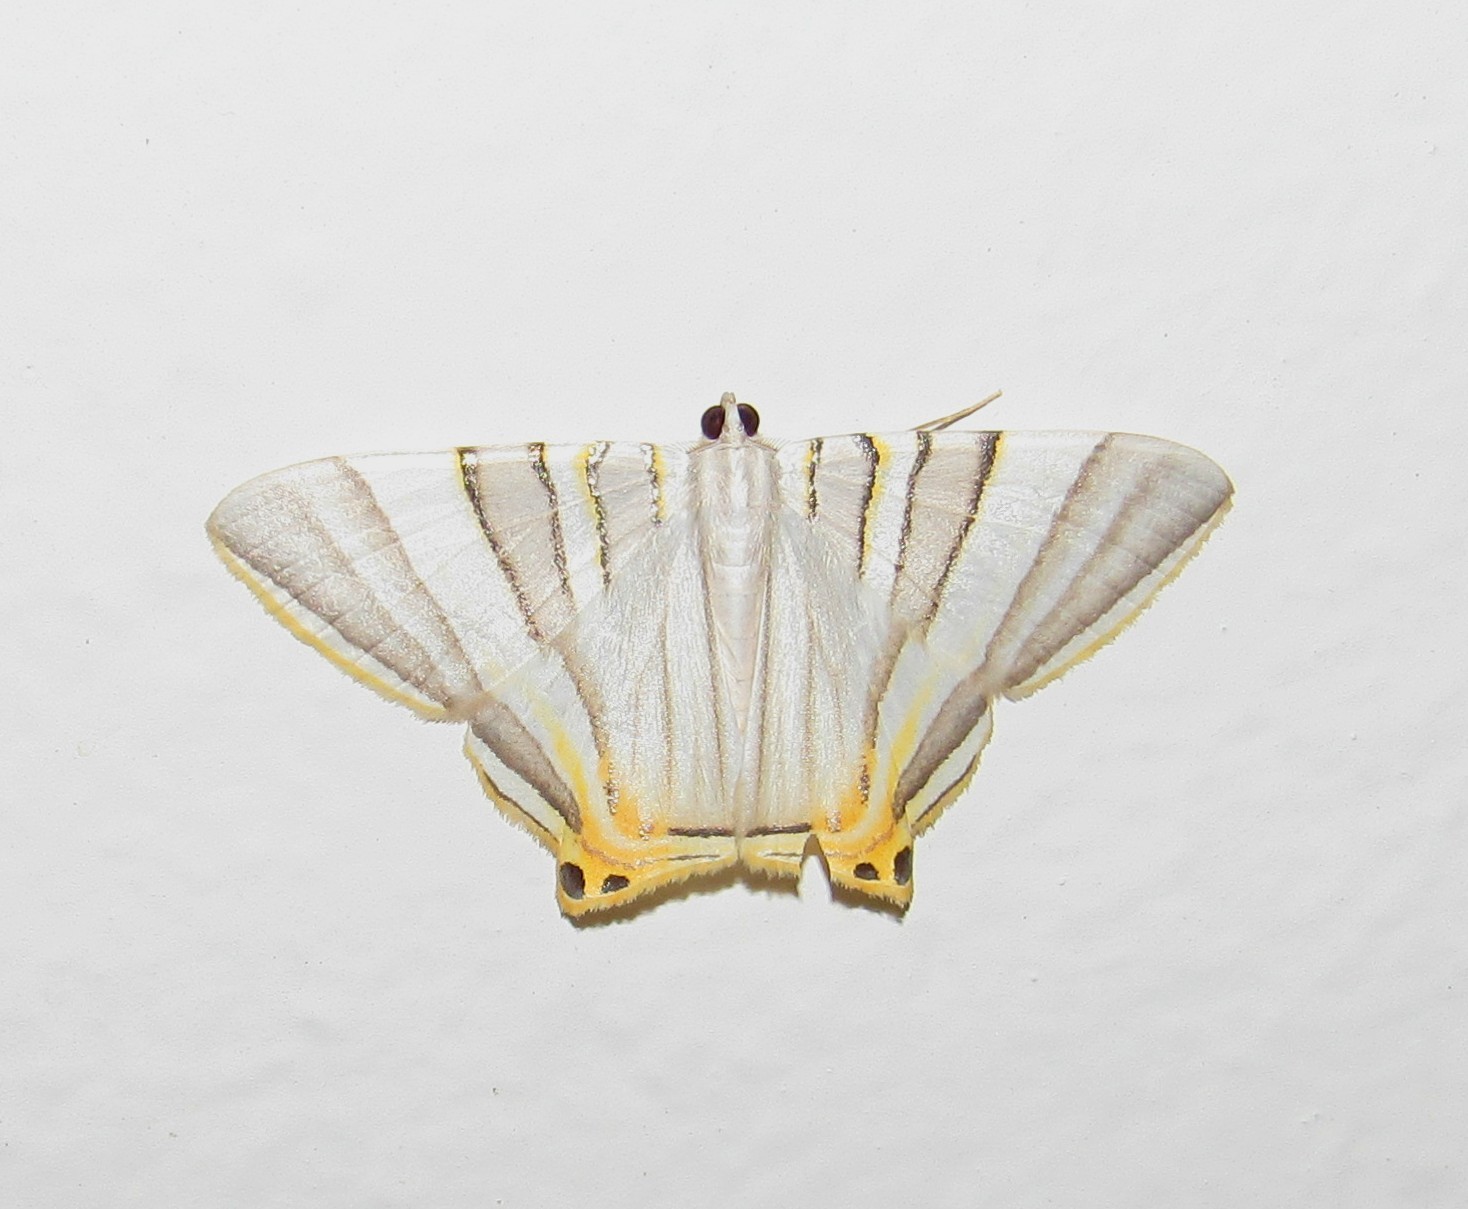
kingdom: Animalia
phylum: Arthropoda
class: Insecta
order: Lepidoptera
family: Geometridae
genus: Phrygionis
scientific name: Phrygionis platinata
